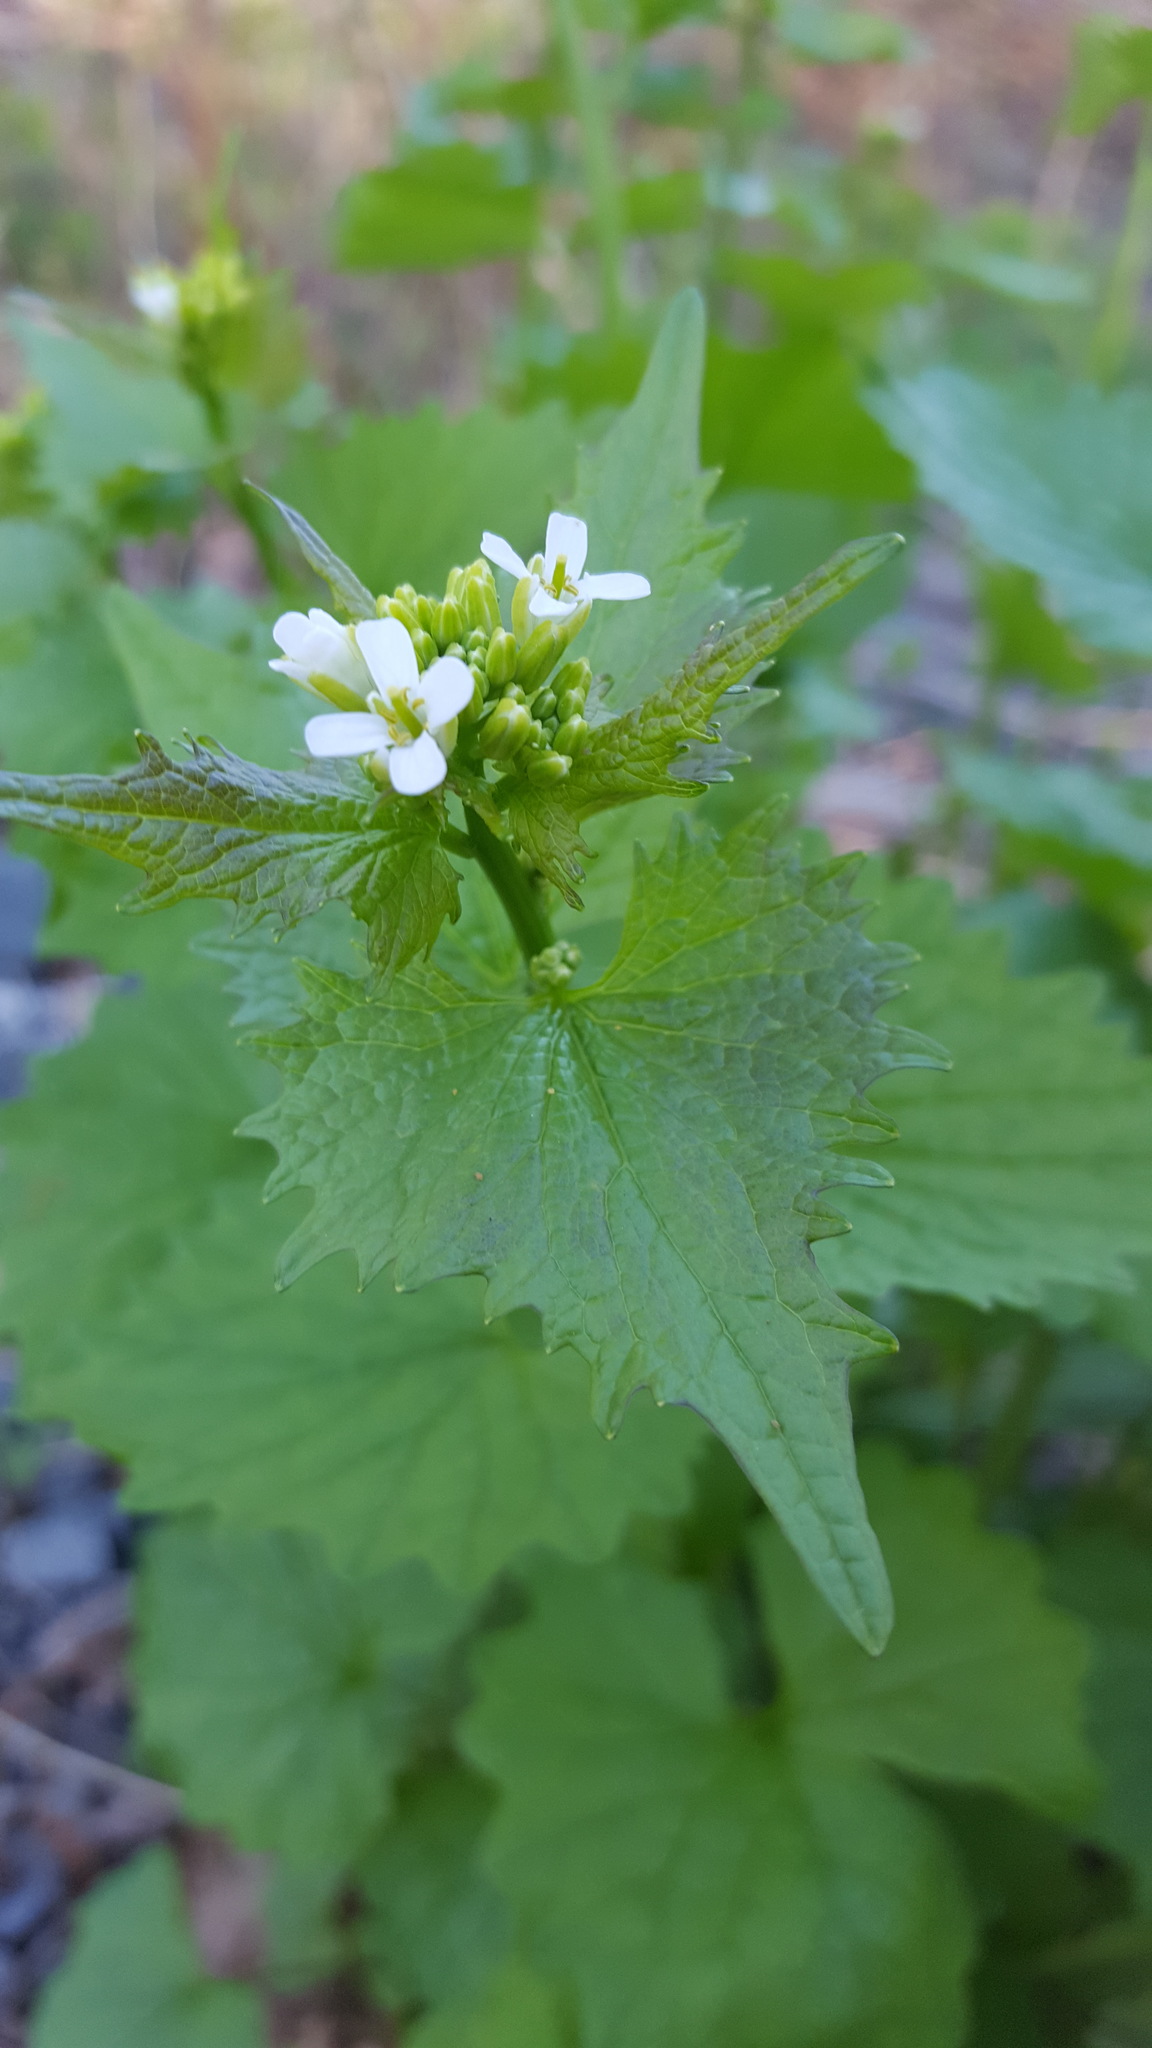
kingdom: Plantae
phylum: Tracheophyta
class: Magnoliopsida
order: Brassicales
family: Brassicaceae
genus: Alliaria
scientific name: Alliaria petiolata
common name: Garlic mustard
